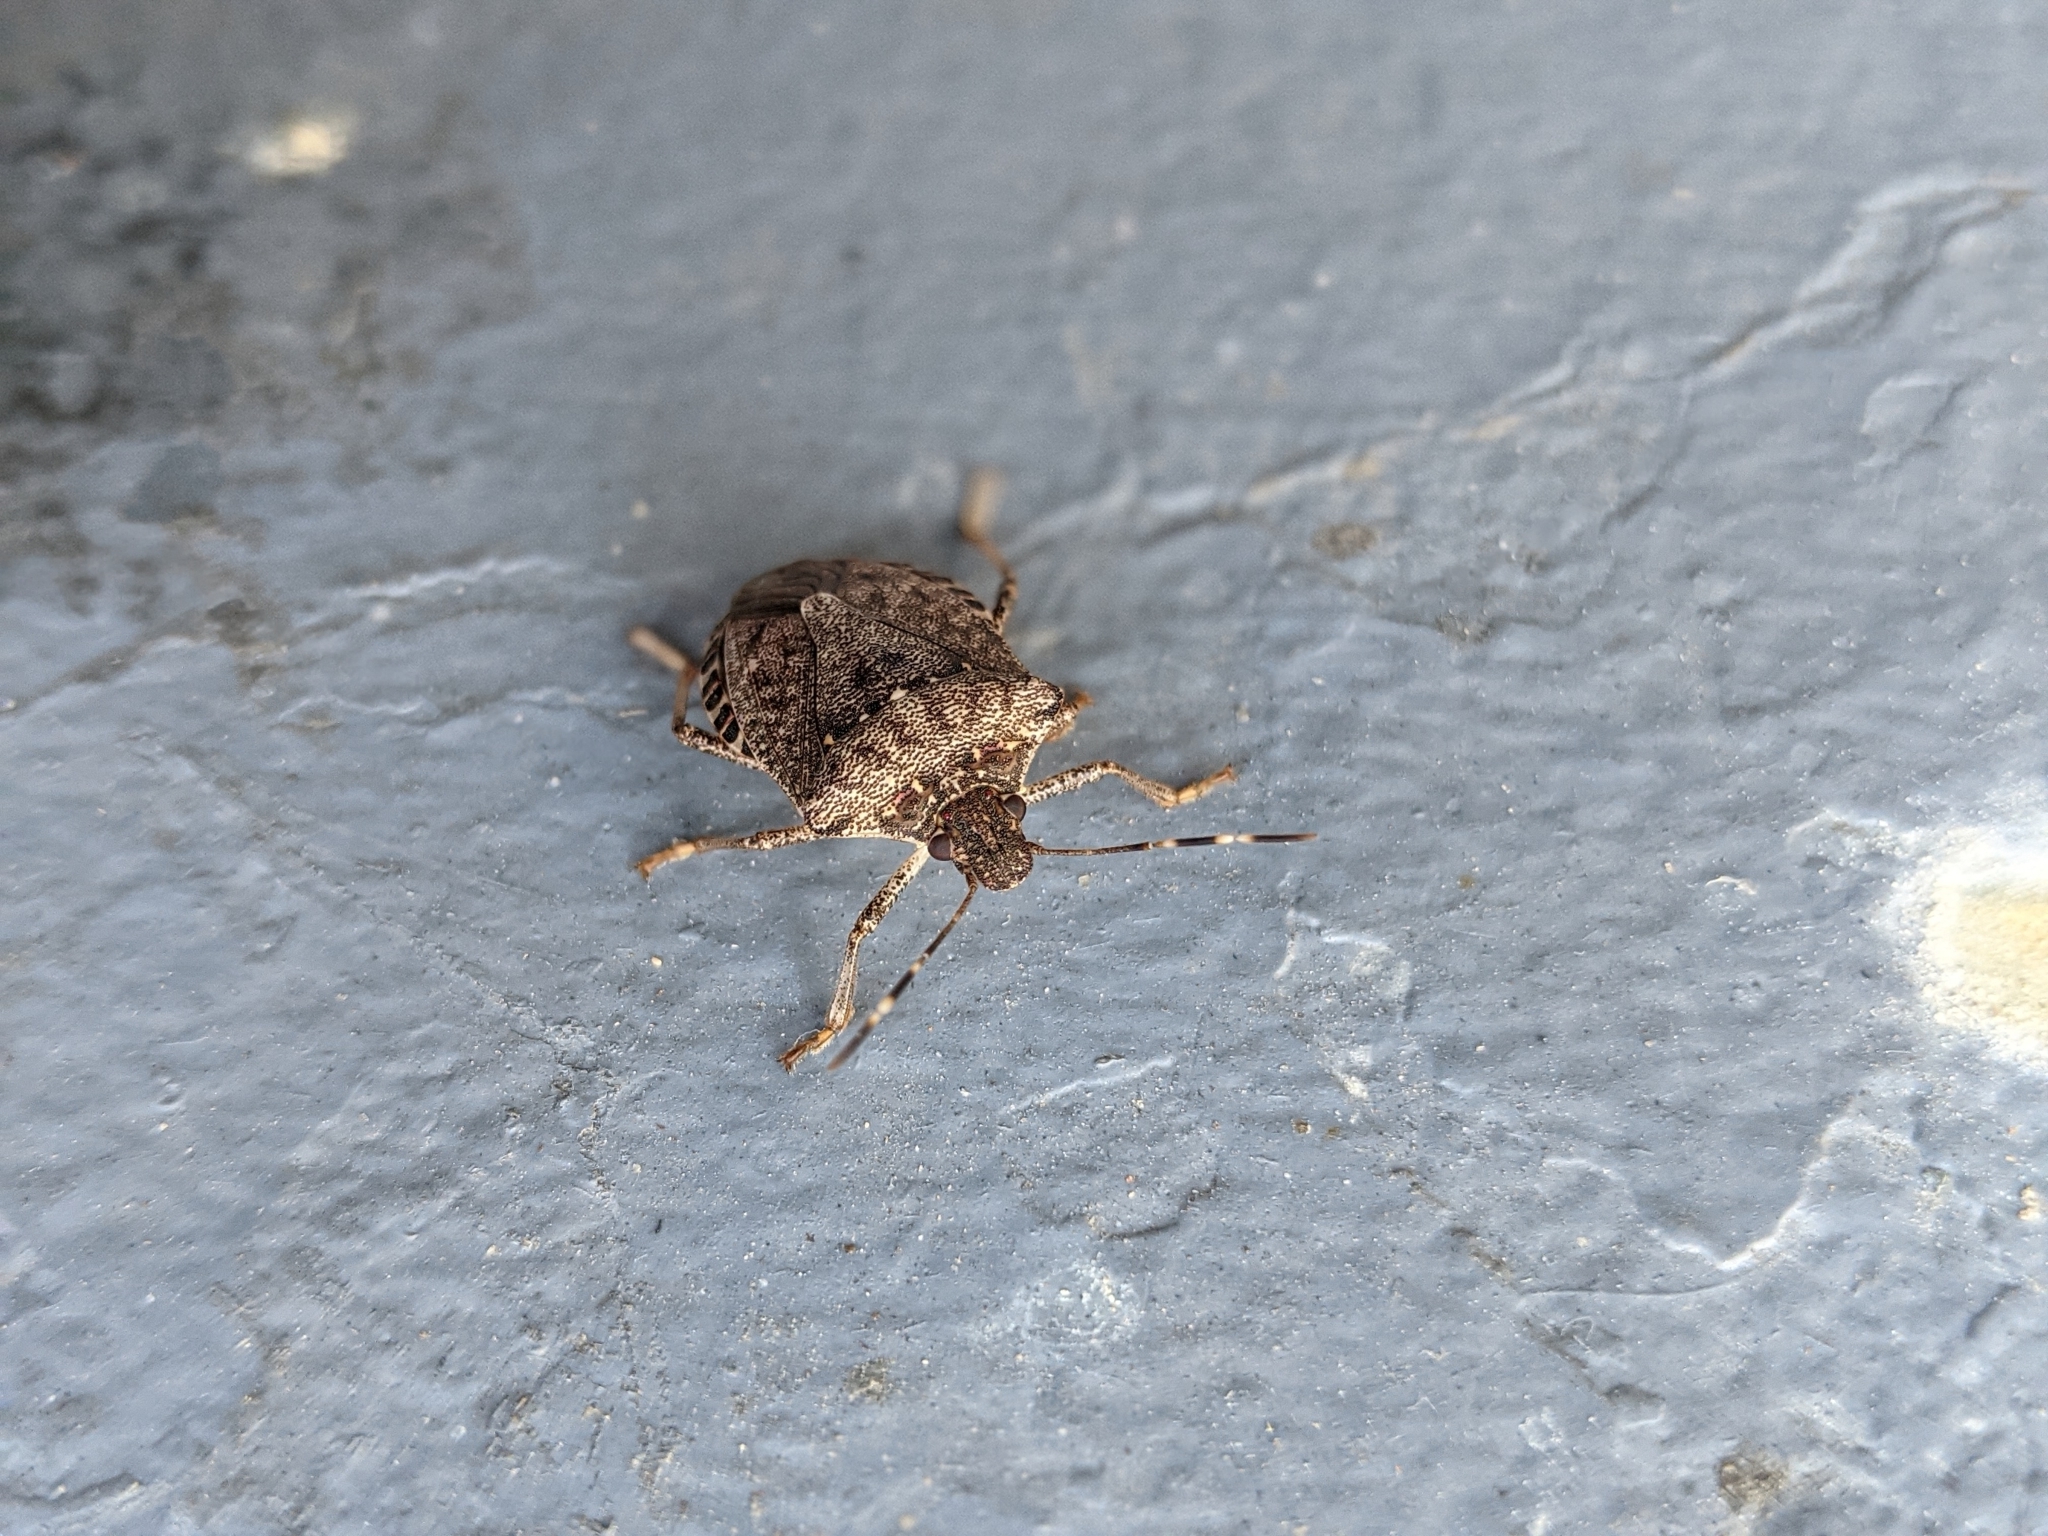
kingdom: Animalia
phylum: Arthropoda
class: Insecta
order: Hemiptera
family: Pentatomidae
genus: Halyomorpha
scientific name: Halyomorpha halys
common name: Brown marmorated stink bug
